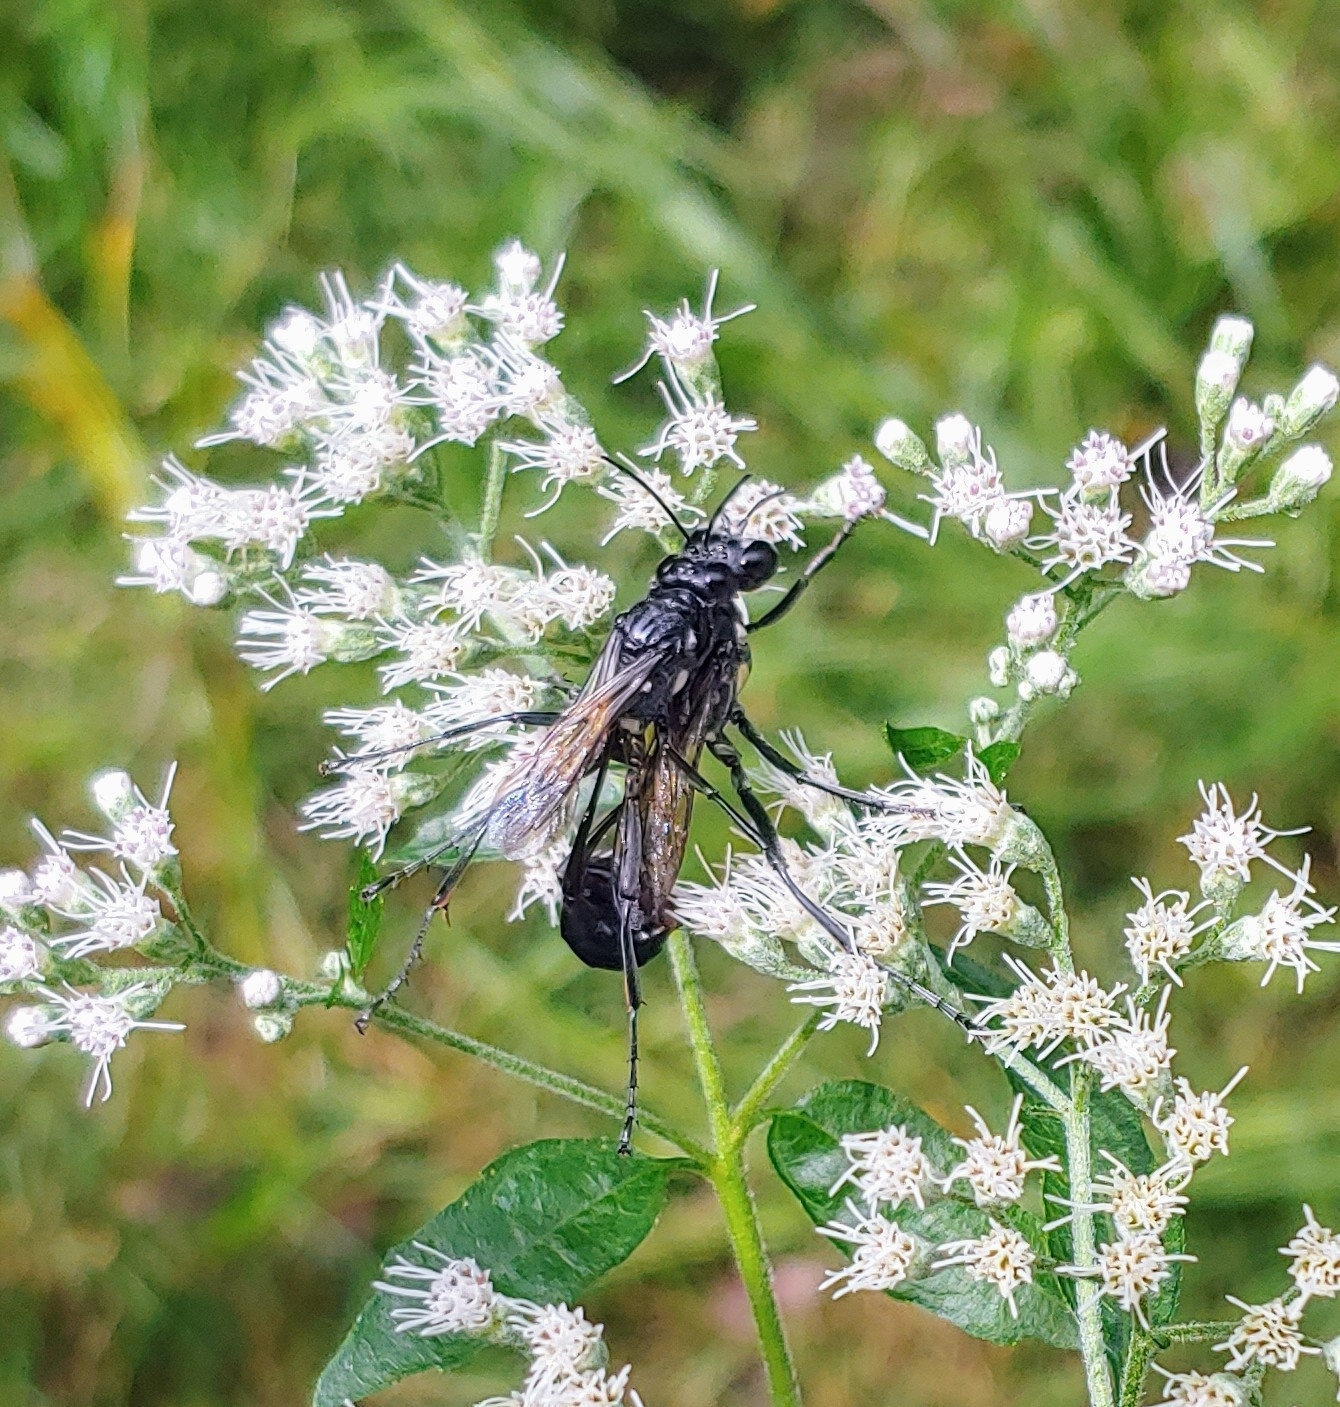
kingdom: Animalia
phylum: Arthropoda
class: Insecta
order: Hymenoptera
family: Sphecidae
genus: Eremnophila
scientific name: Eremnophila aureonotata
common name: Gold-marked thread-waisted wasp
